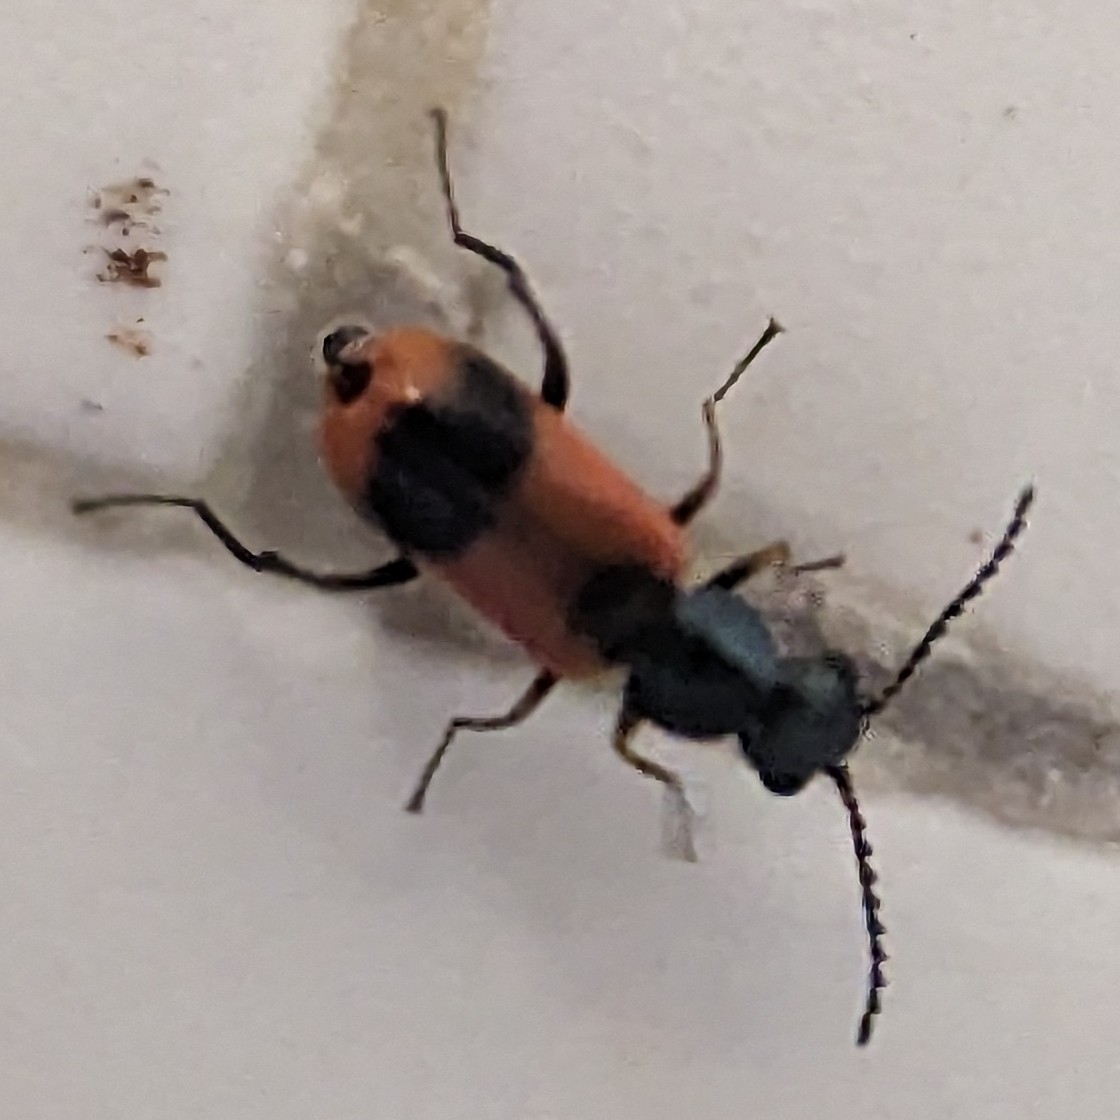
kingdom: Animalia
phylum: Arthropoda
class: Insecta
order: Coleoptera
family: Melyridae
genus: Anthocomus
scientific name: Anthocomus equestris
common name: Black-banded soft-winged flower beetle
